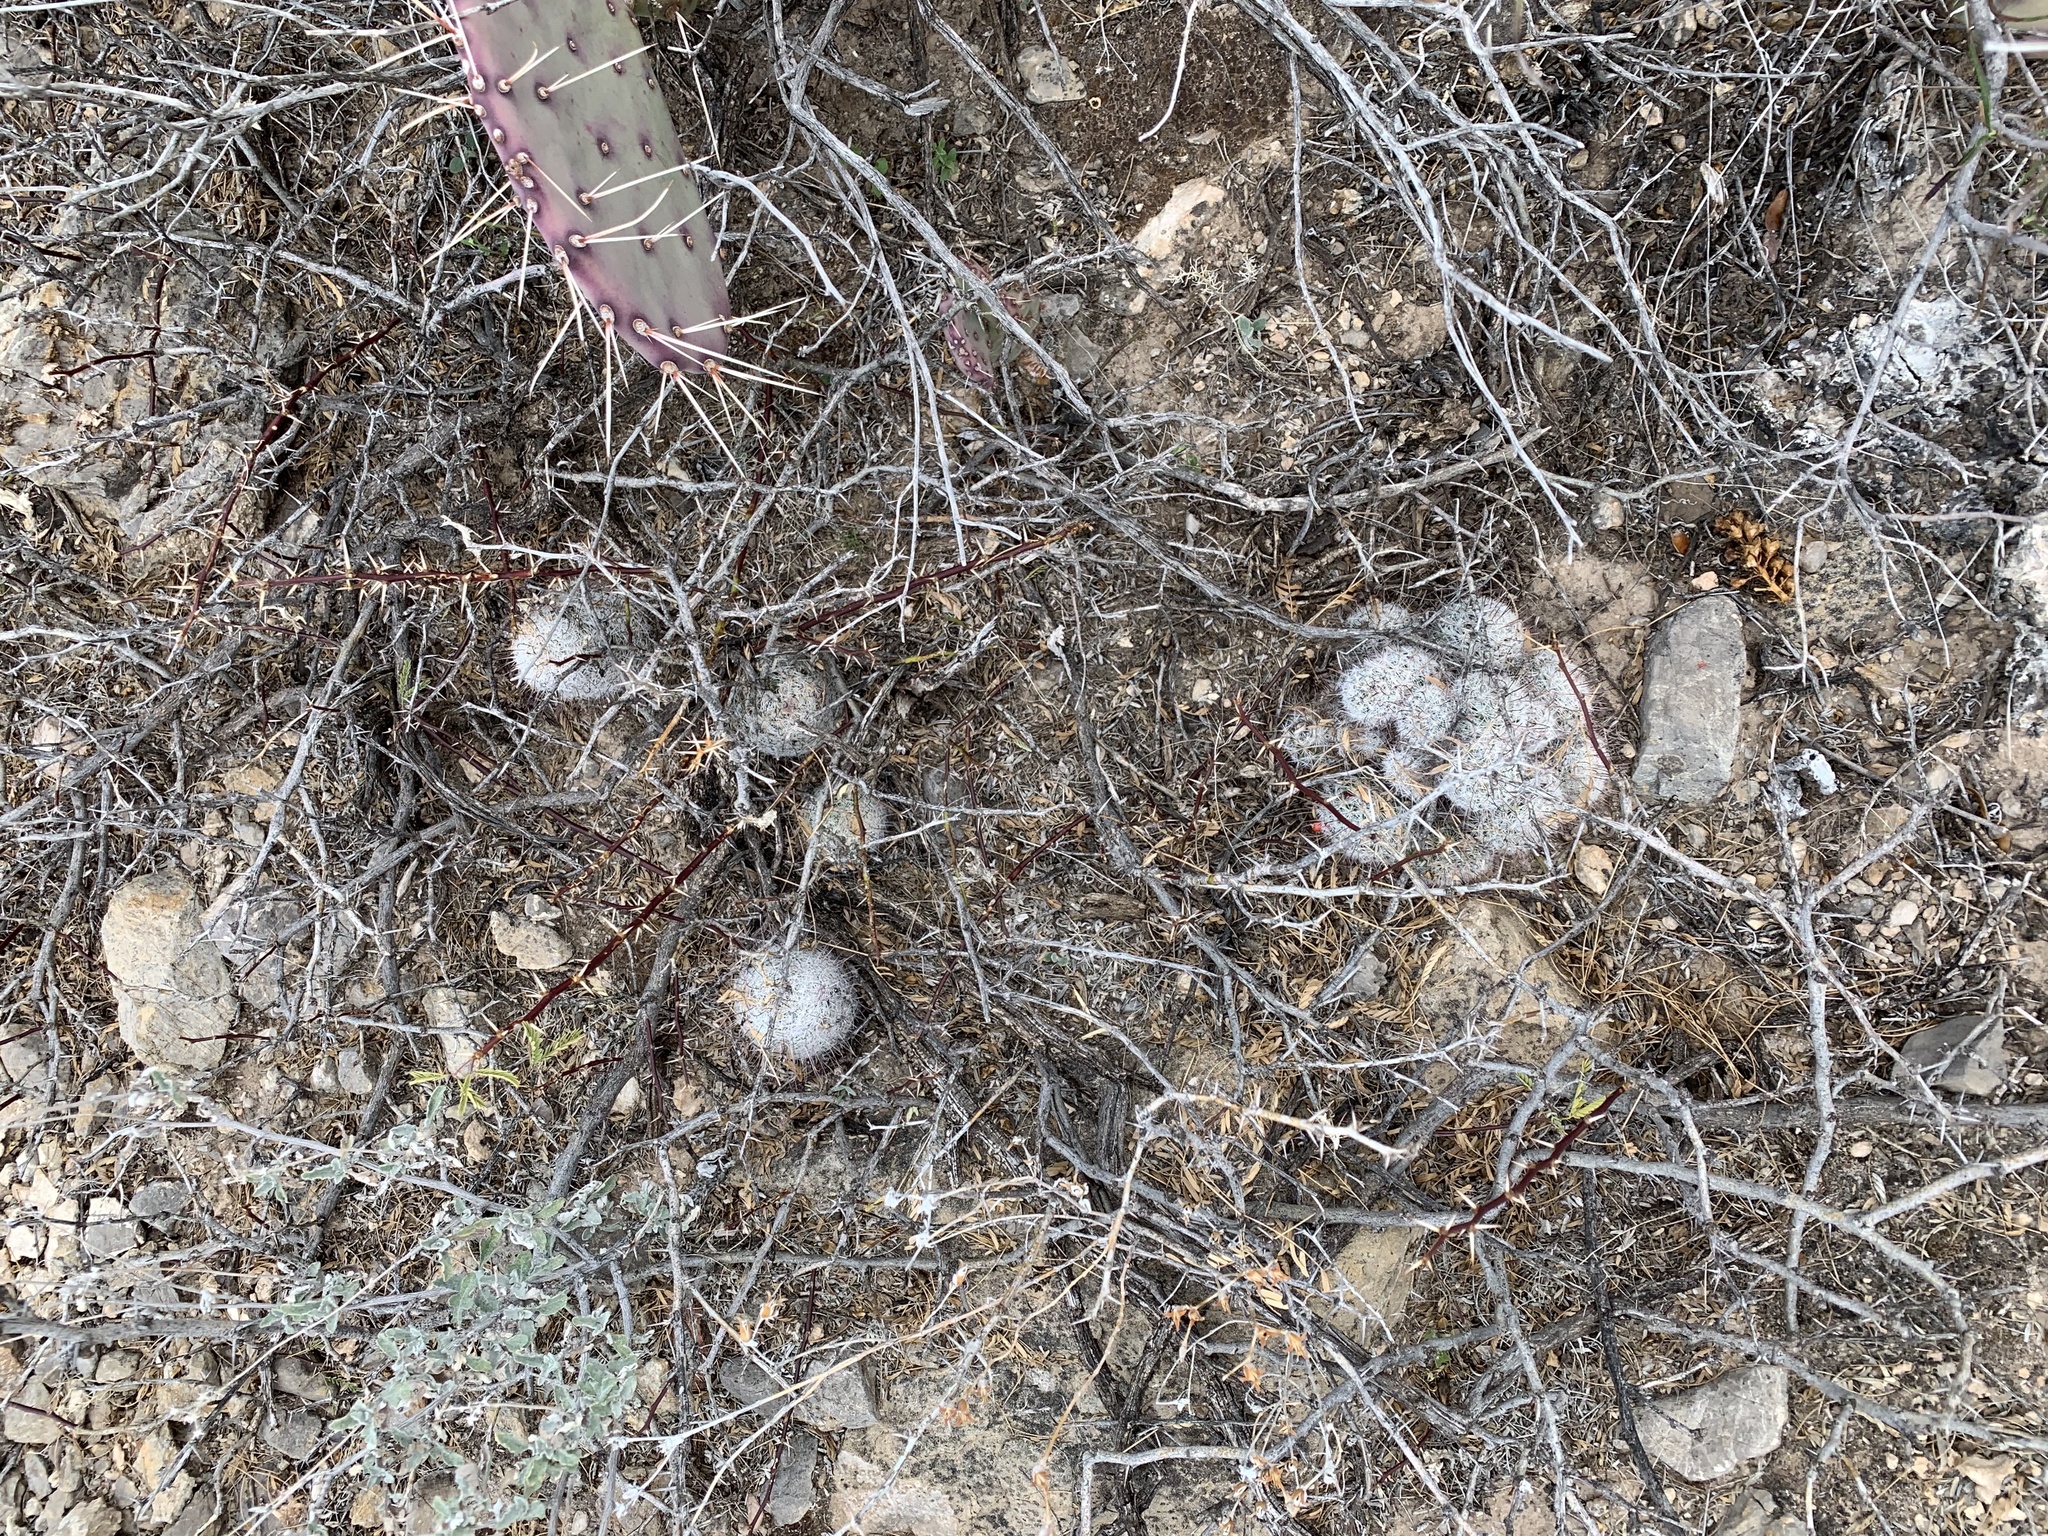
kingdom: Plantae
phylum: Tracheophyta
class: Magnoliopsida
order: Caryophyllales
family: Cactaceae
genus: Cochemiea
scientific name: Cochemiea grahamii
